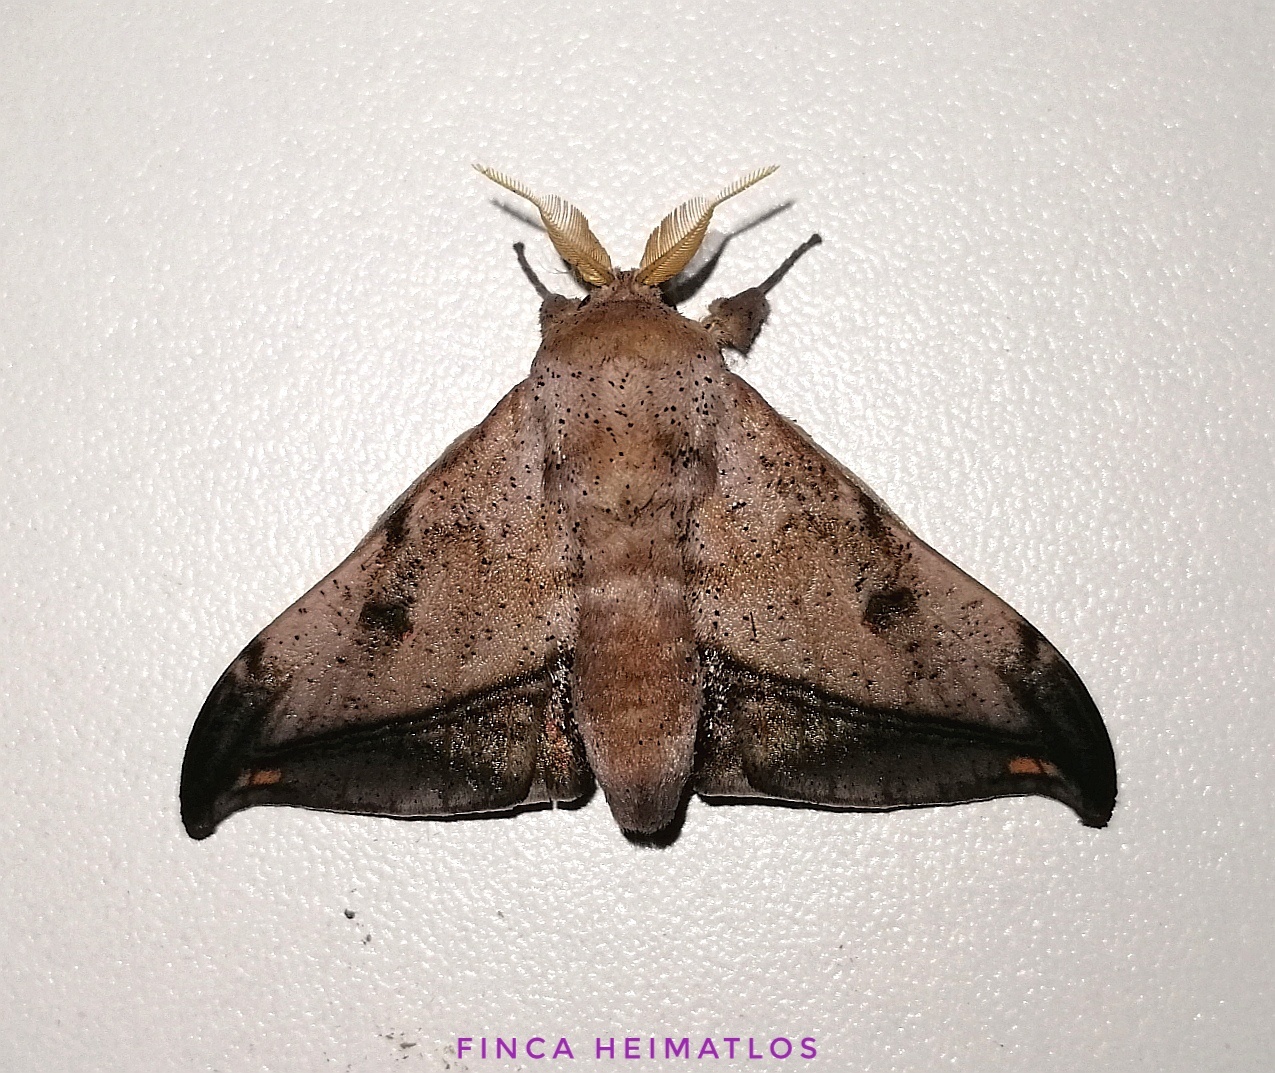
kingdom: Animalia
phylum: Arthropoda
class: Insecta
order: Lepidoptera
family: Mimallonidae
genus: Cicinnus
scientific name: Cicinnus fogia
